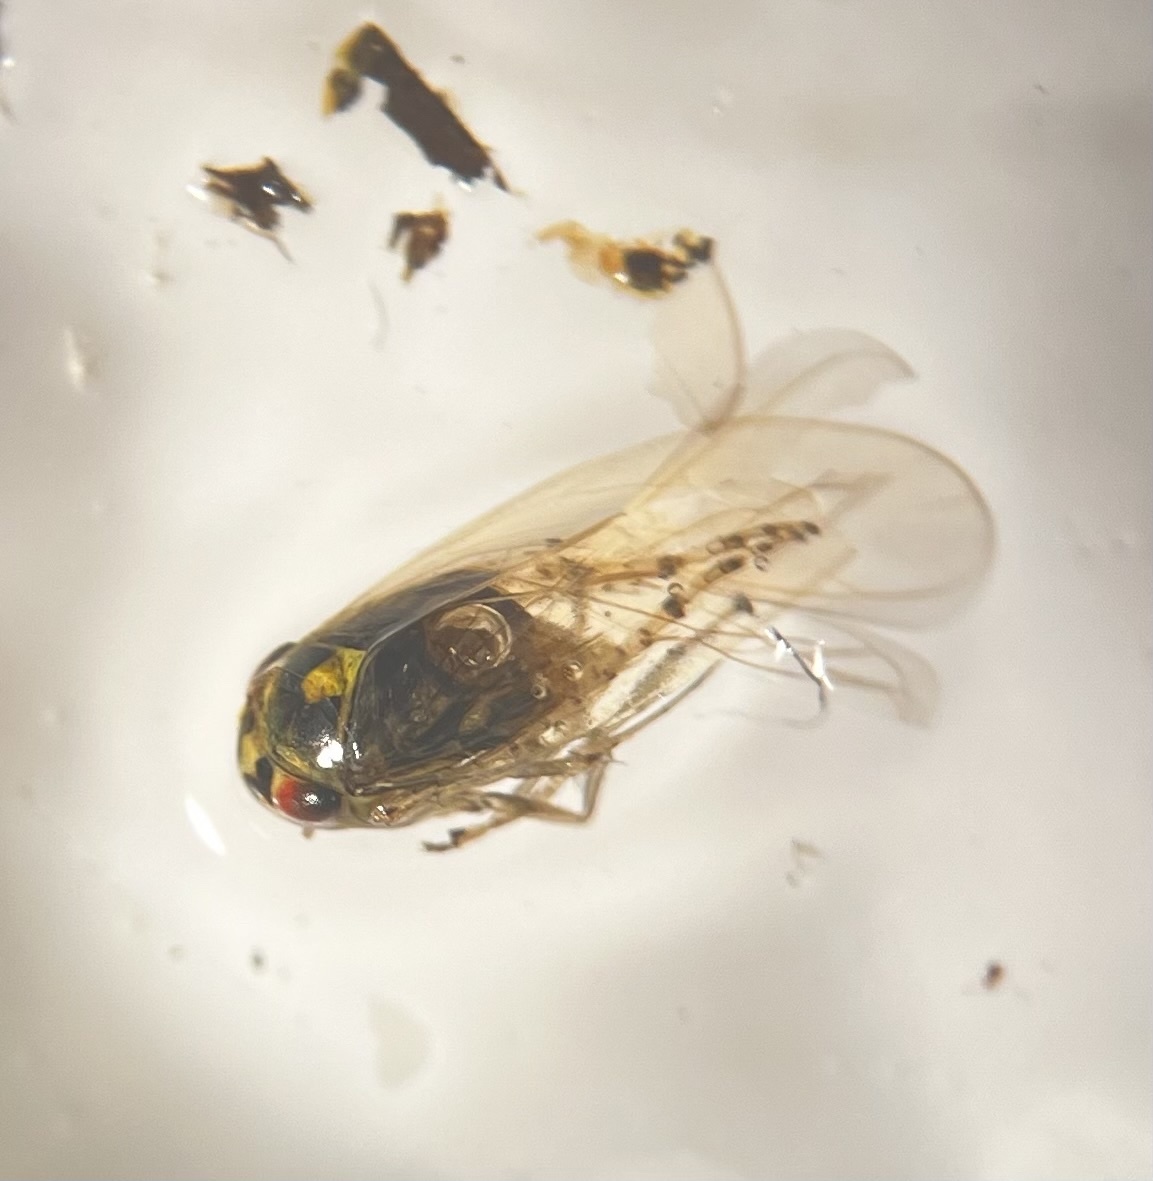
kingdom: Animalia
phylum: Arthropoda
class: Insecta
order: Hemiptera
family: Cicadellidae
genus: Macrosteles
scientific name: Macrosteles ossiannilssoni
